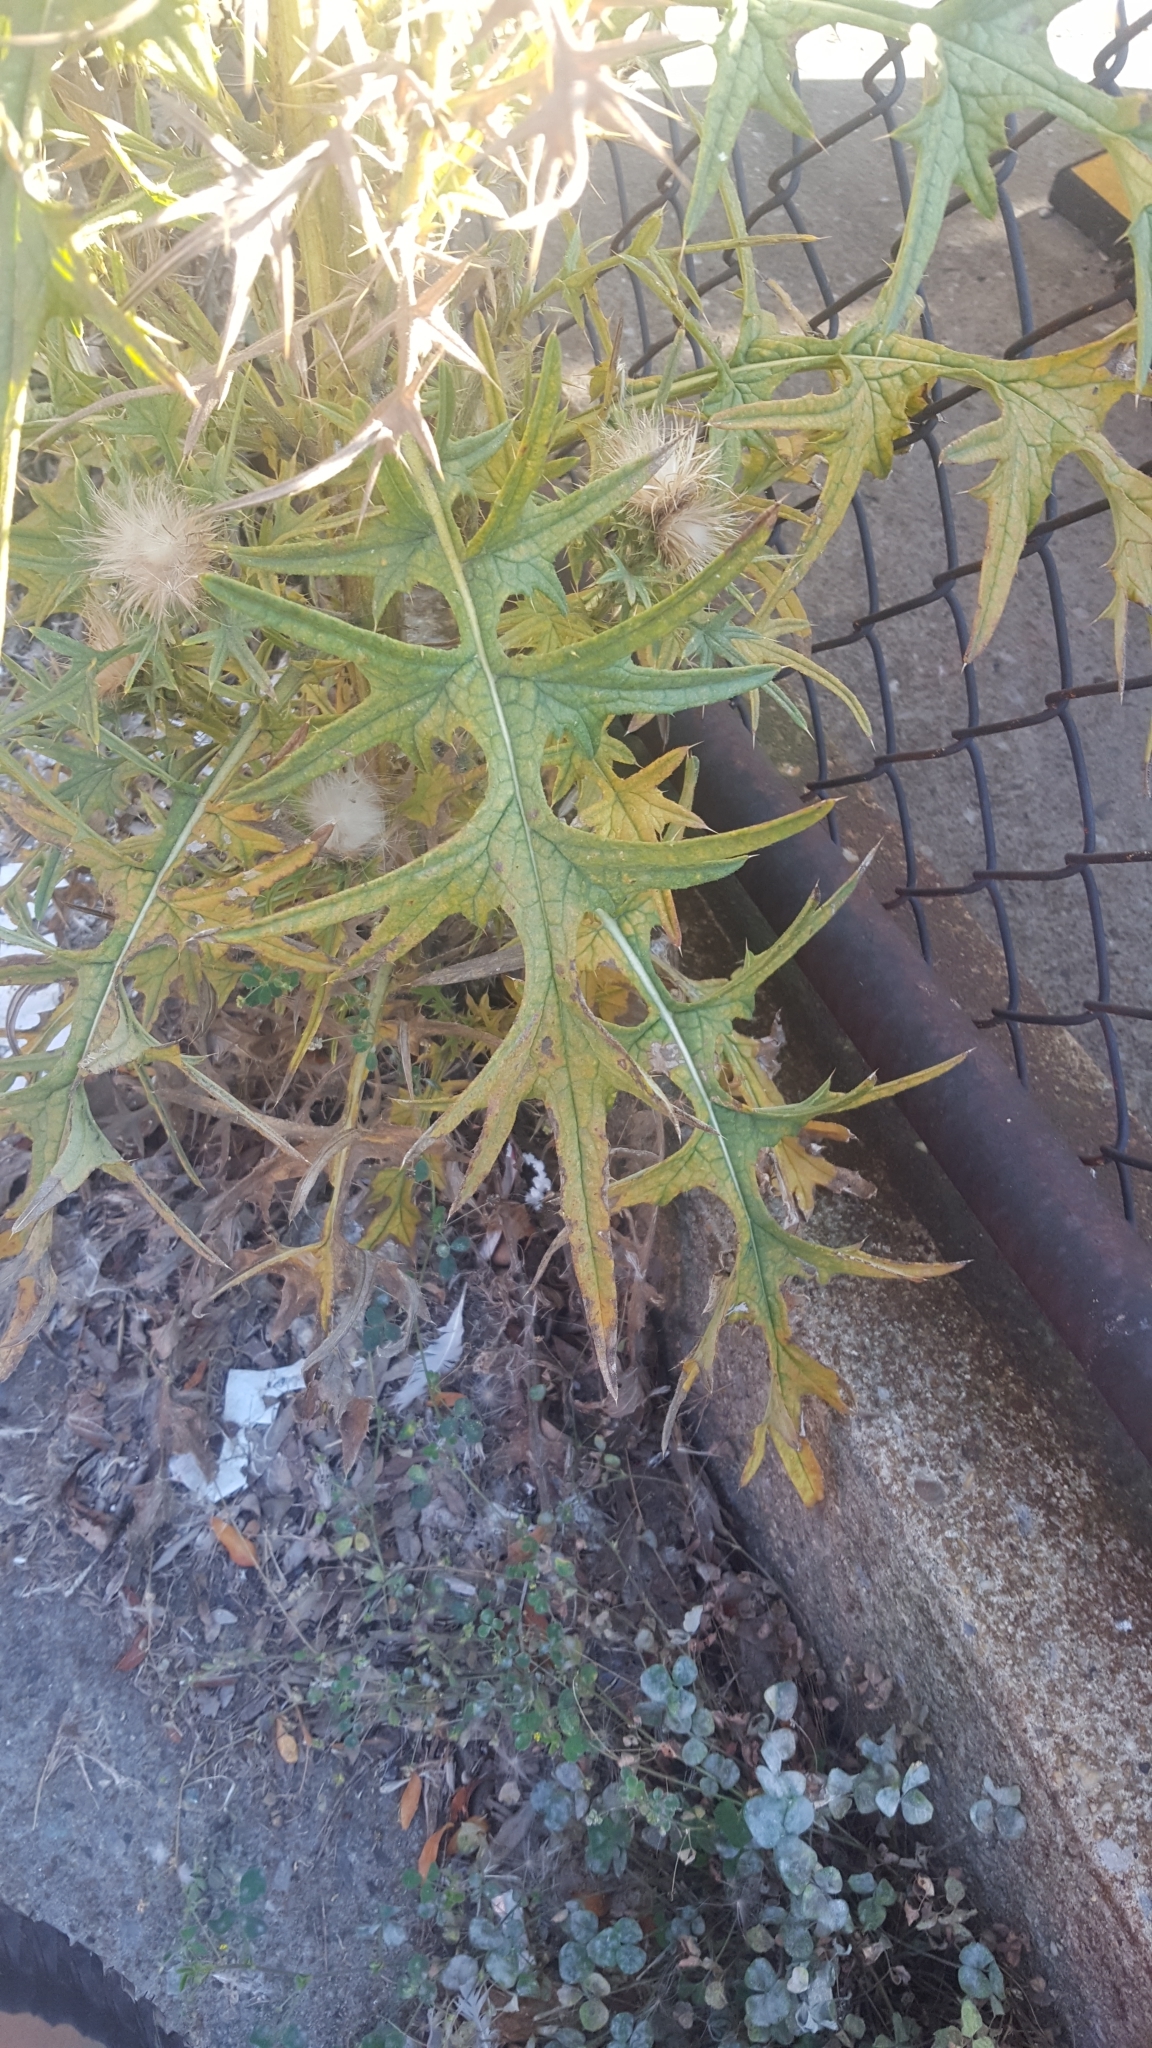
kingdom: Plantae
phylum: Tracheophyta
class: Magnoliopsida
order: Asterales
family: Asteraceae
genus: Cirsium
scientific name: Cirsium vulgare
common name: Bull thistle
